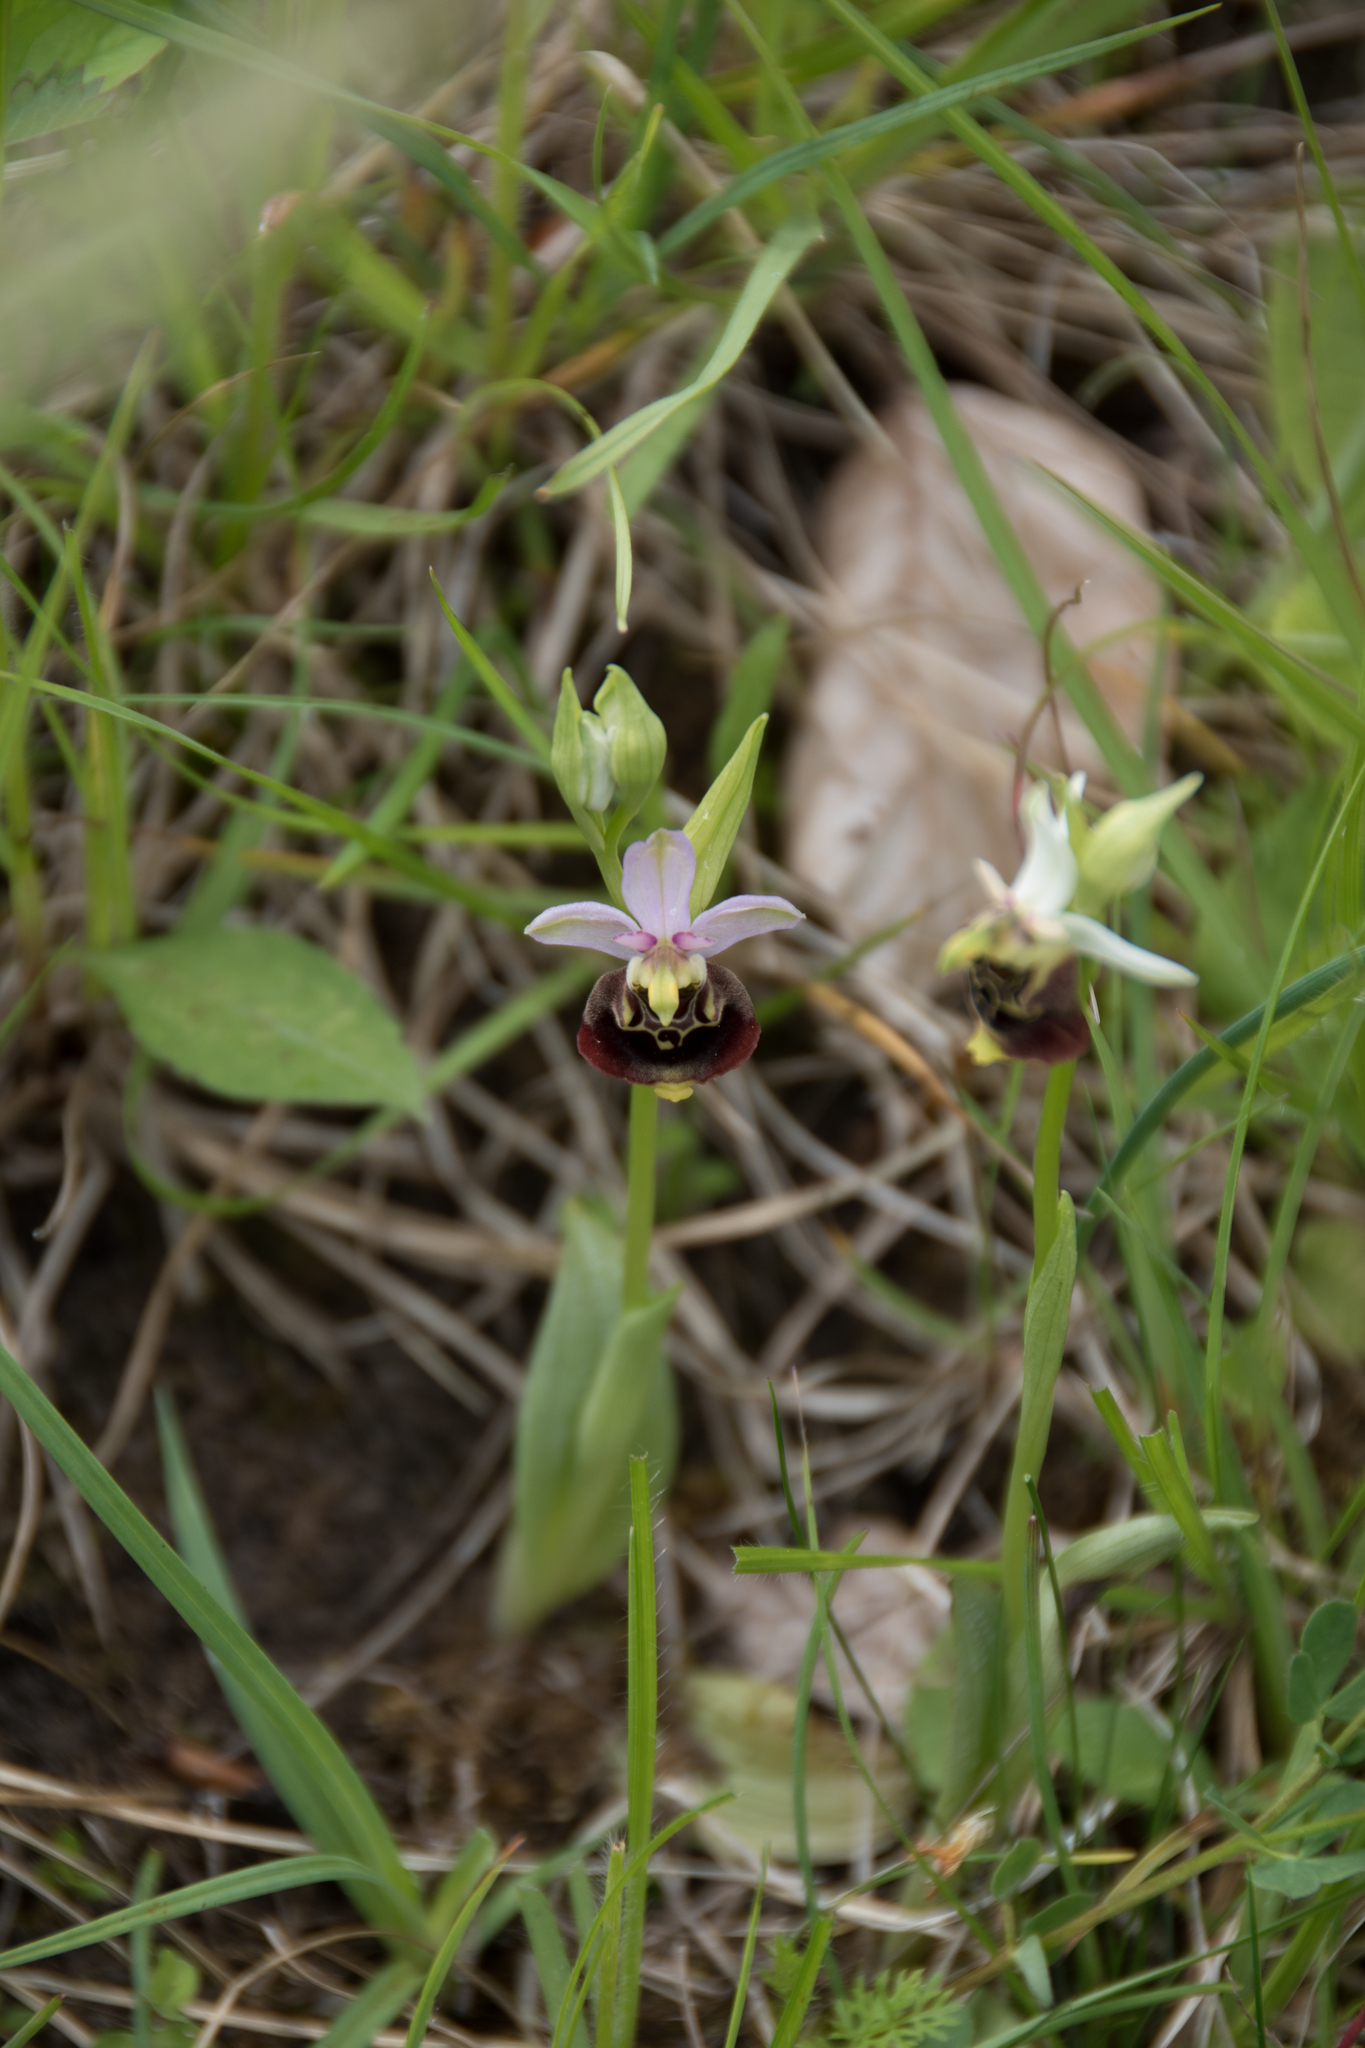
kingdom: Plantae
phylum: Tracheophyta
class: Liliopsida
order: Asparagales
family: Orchidaceae
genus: Ophrys
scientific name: Ophrys holosericea
